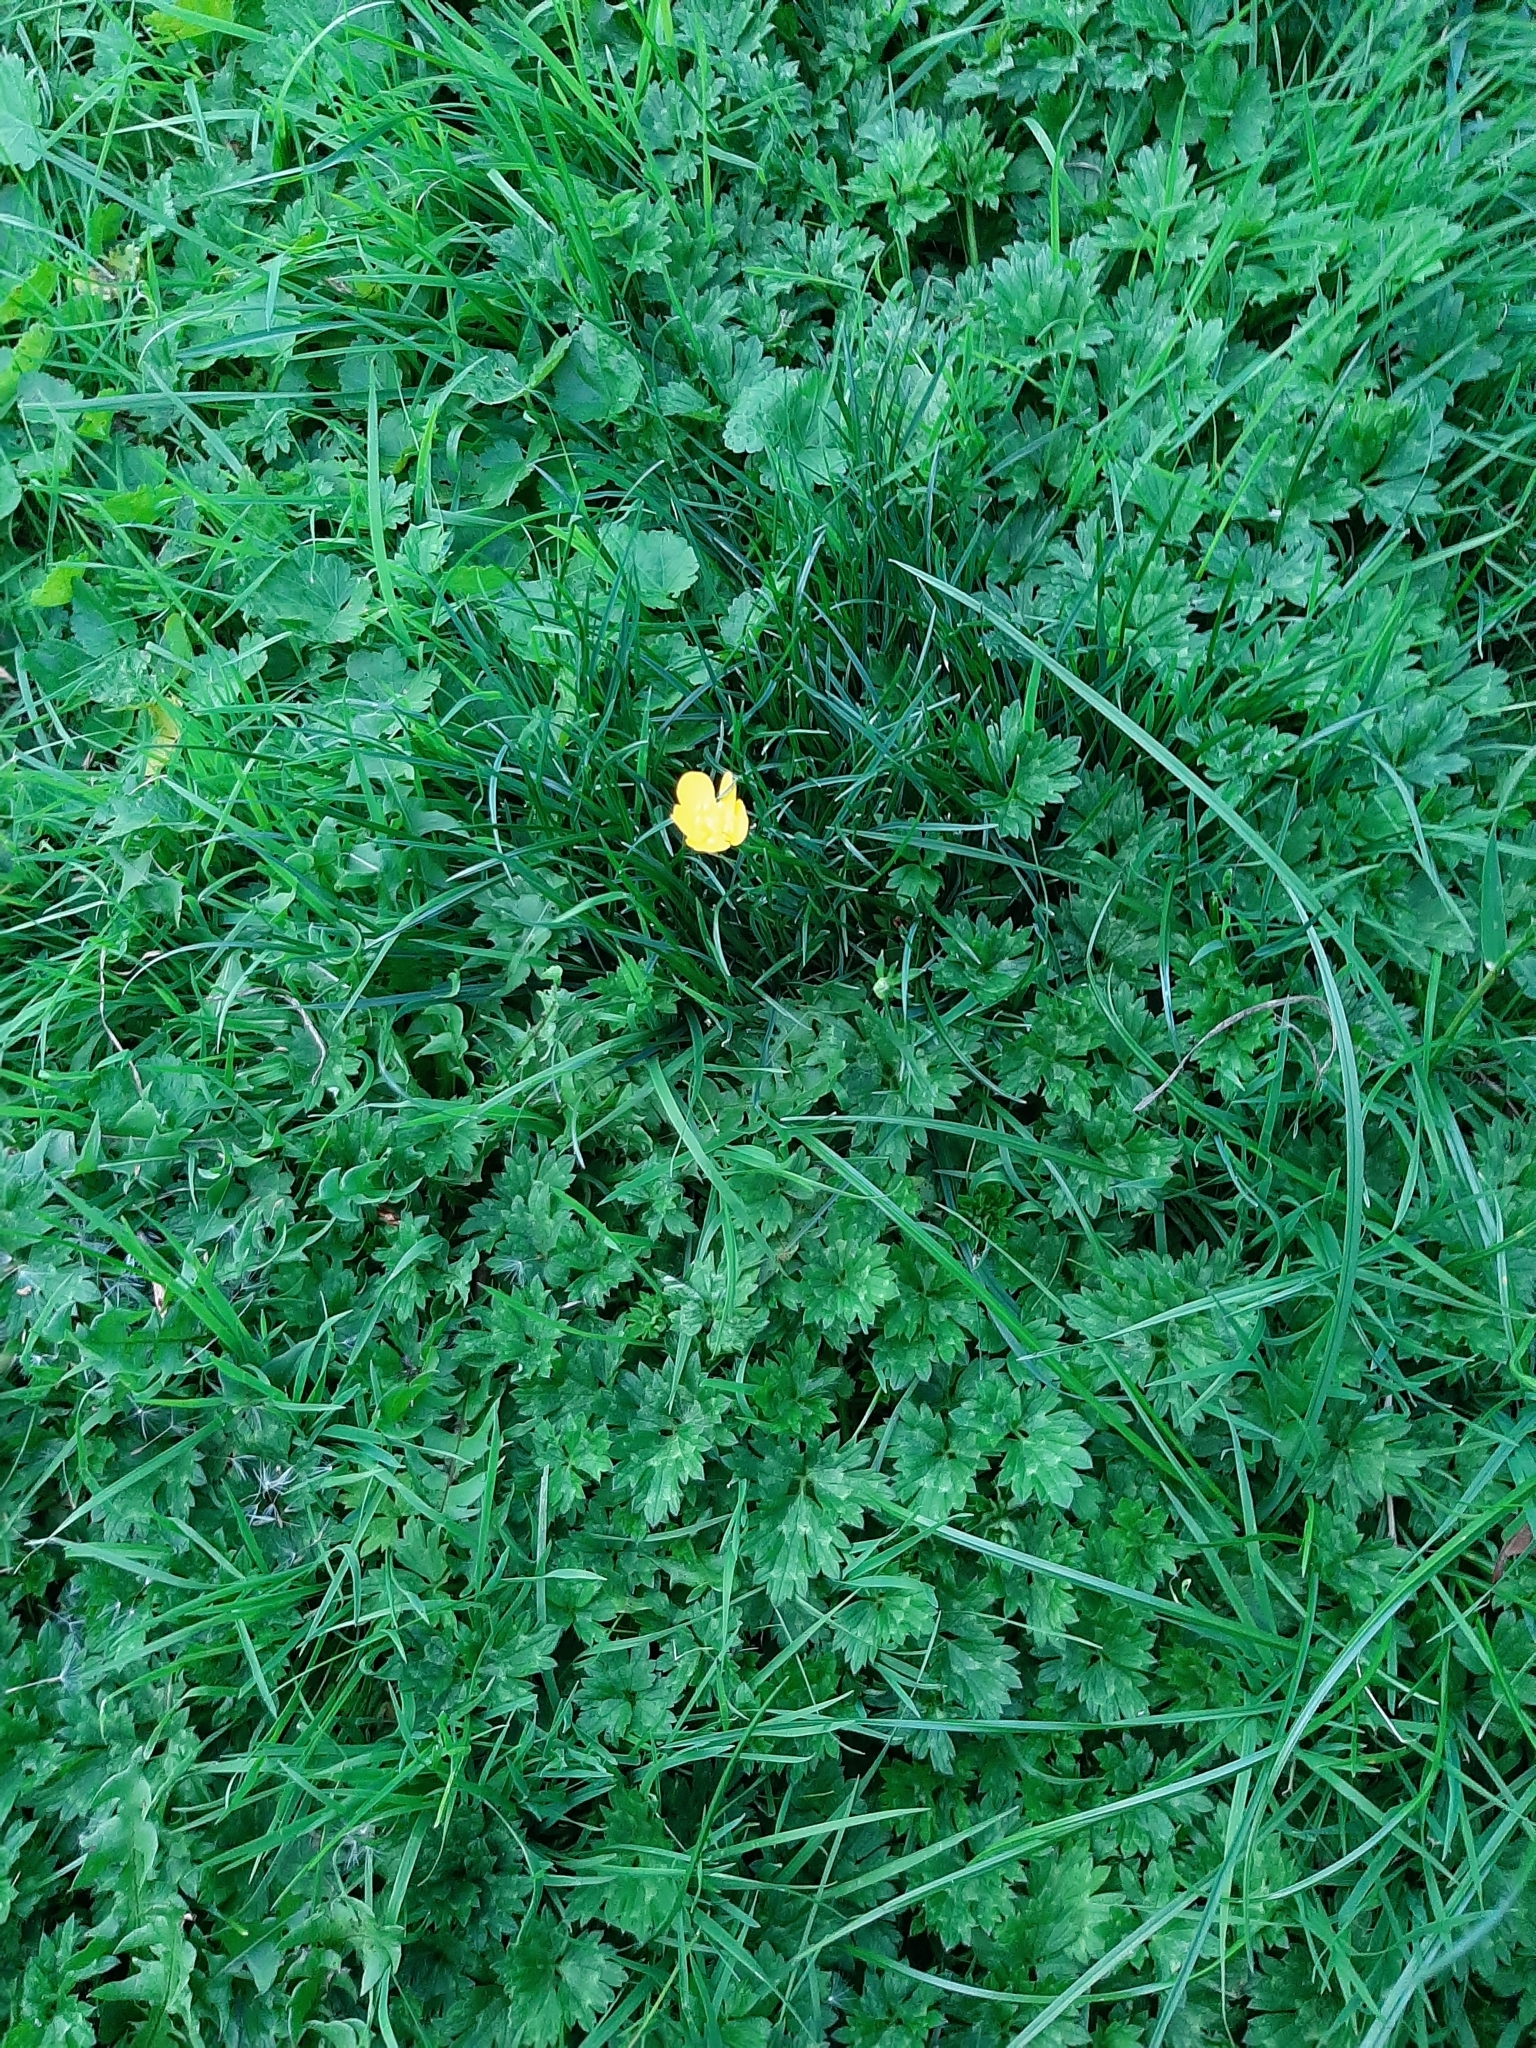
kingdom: Plantae
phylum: Tracheophyta
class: Magnoliopsida
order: Ranunculales
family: Ranunculaceae
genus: Ranunculus
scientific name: Ranunculus repens
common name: Creeping buttercup
